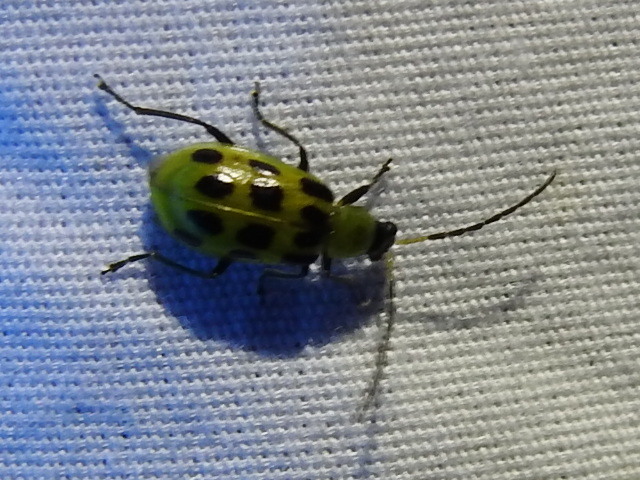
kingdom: Animalia
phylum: Arthropoda
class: Insecta
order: Coleoptera
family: Chrysomelidae
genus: Diabrotica
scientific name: Diabrotica undecimpunctata
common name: Spotted cucumber beetle
